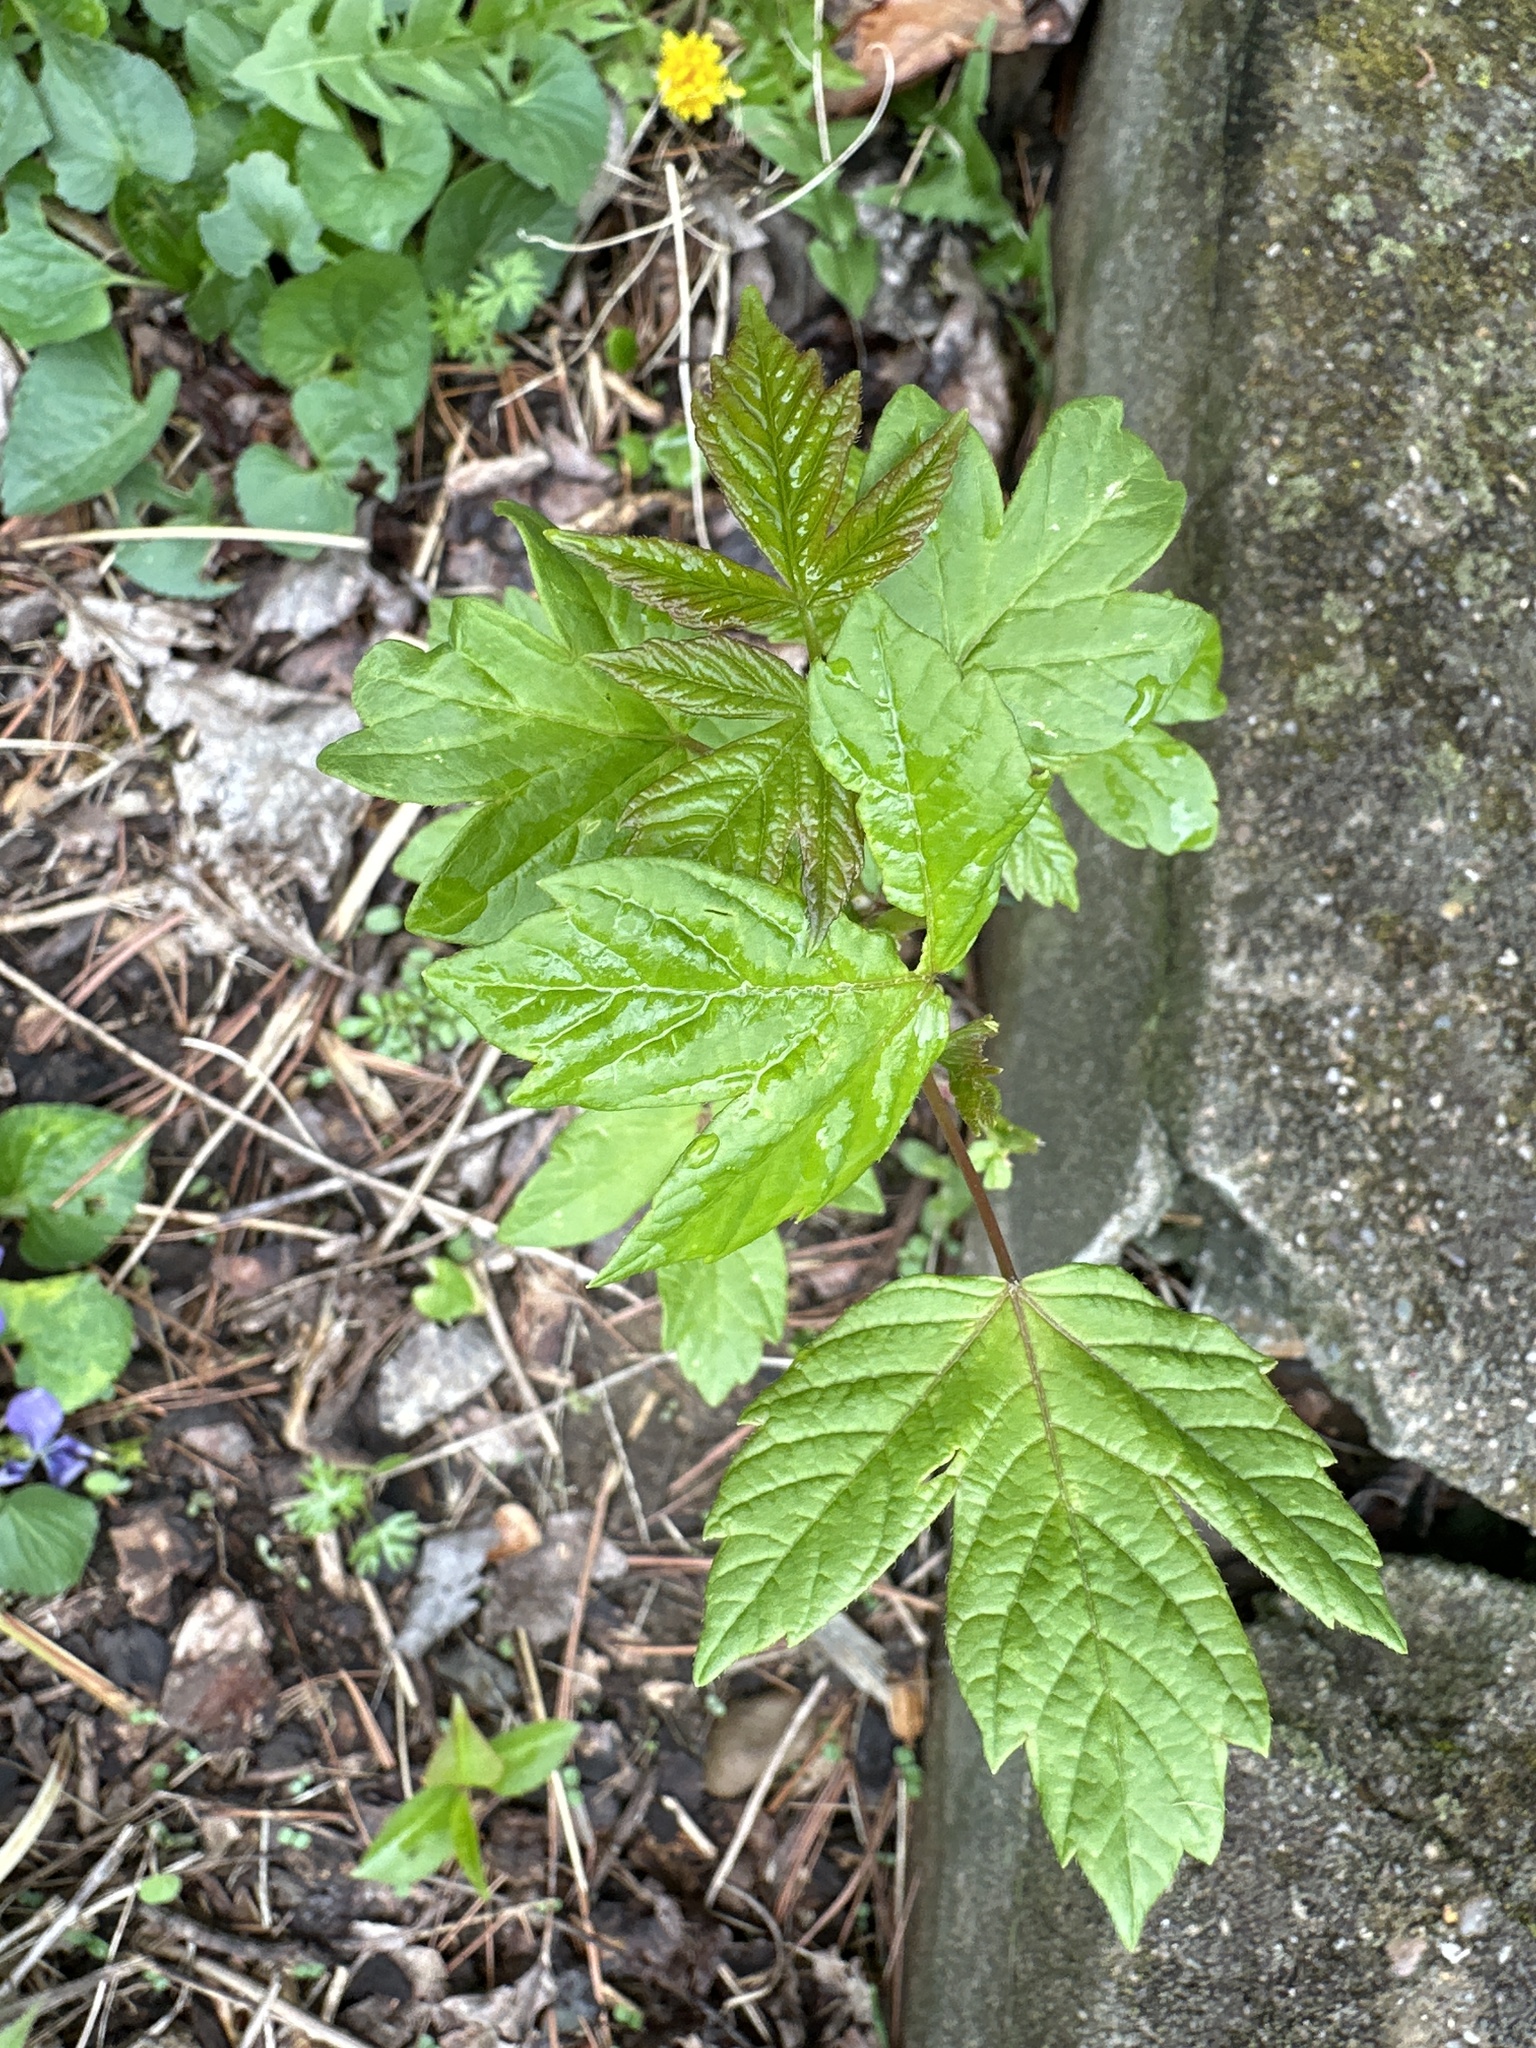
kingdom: Plantae
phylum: Tracheophyta
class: Magnoliopsida
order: Sapindales
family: Sapindaceae
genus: Acer
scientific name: Acer negundo
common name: Ashleaf maple
